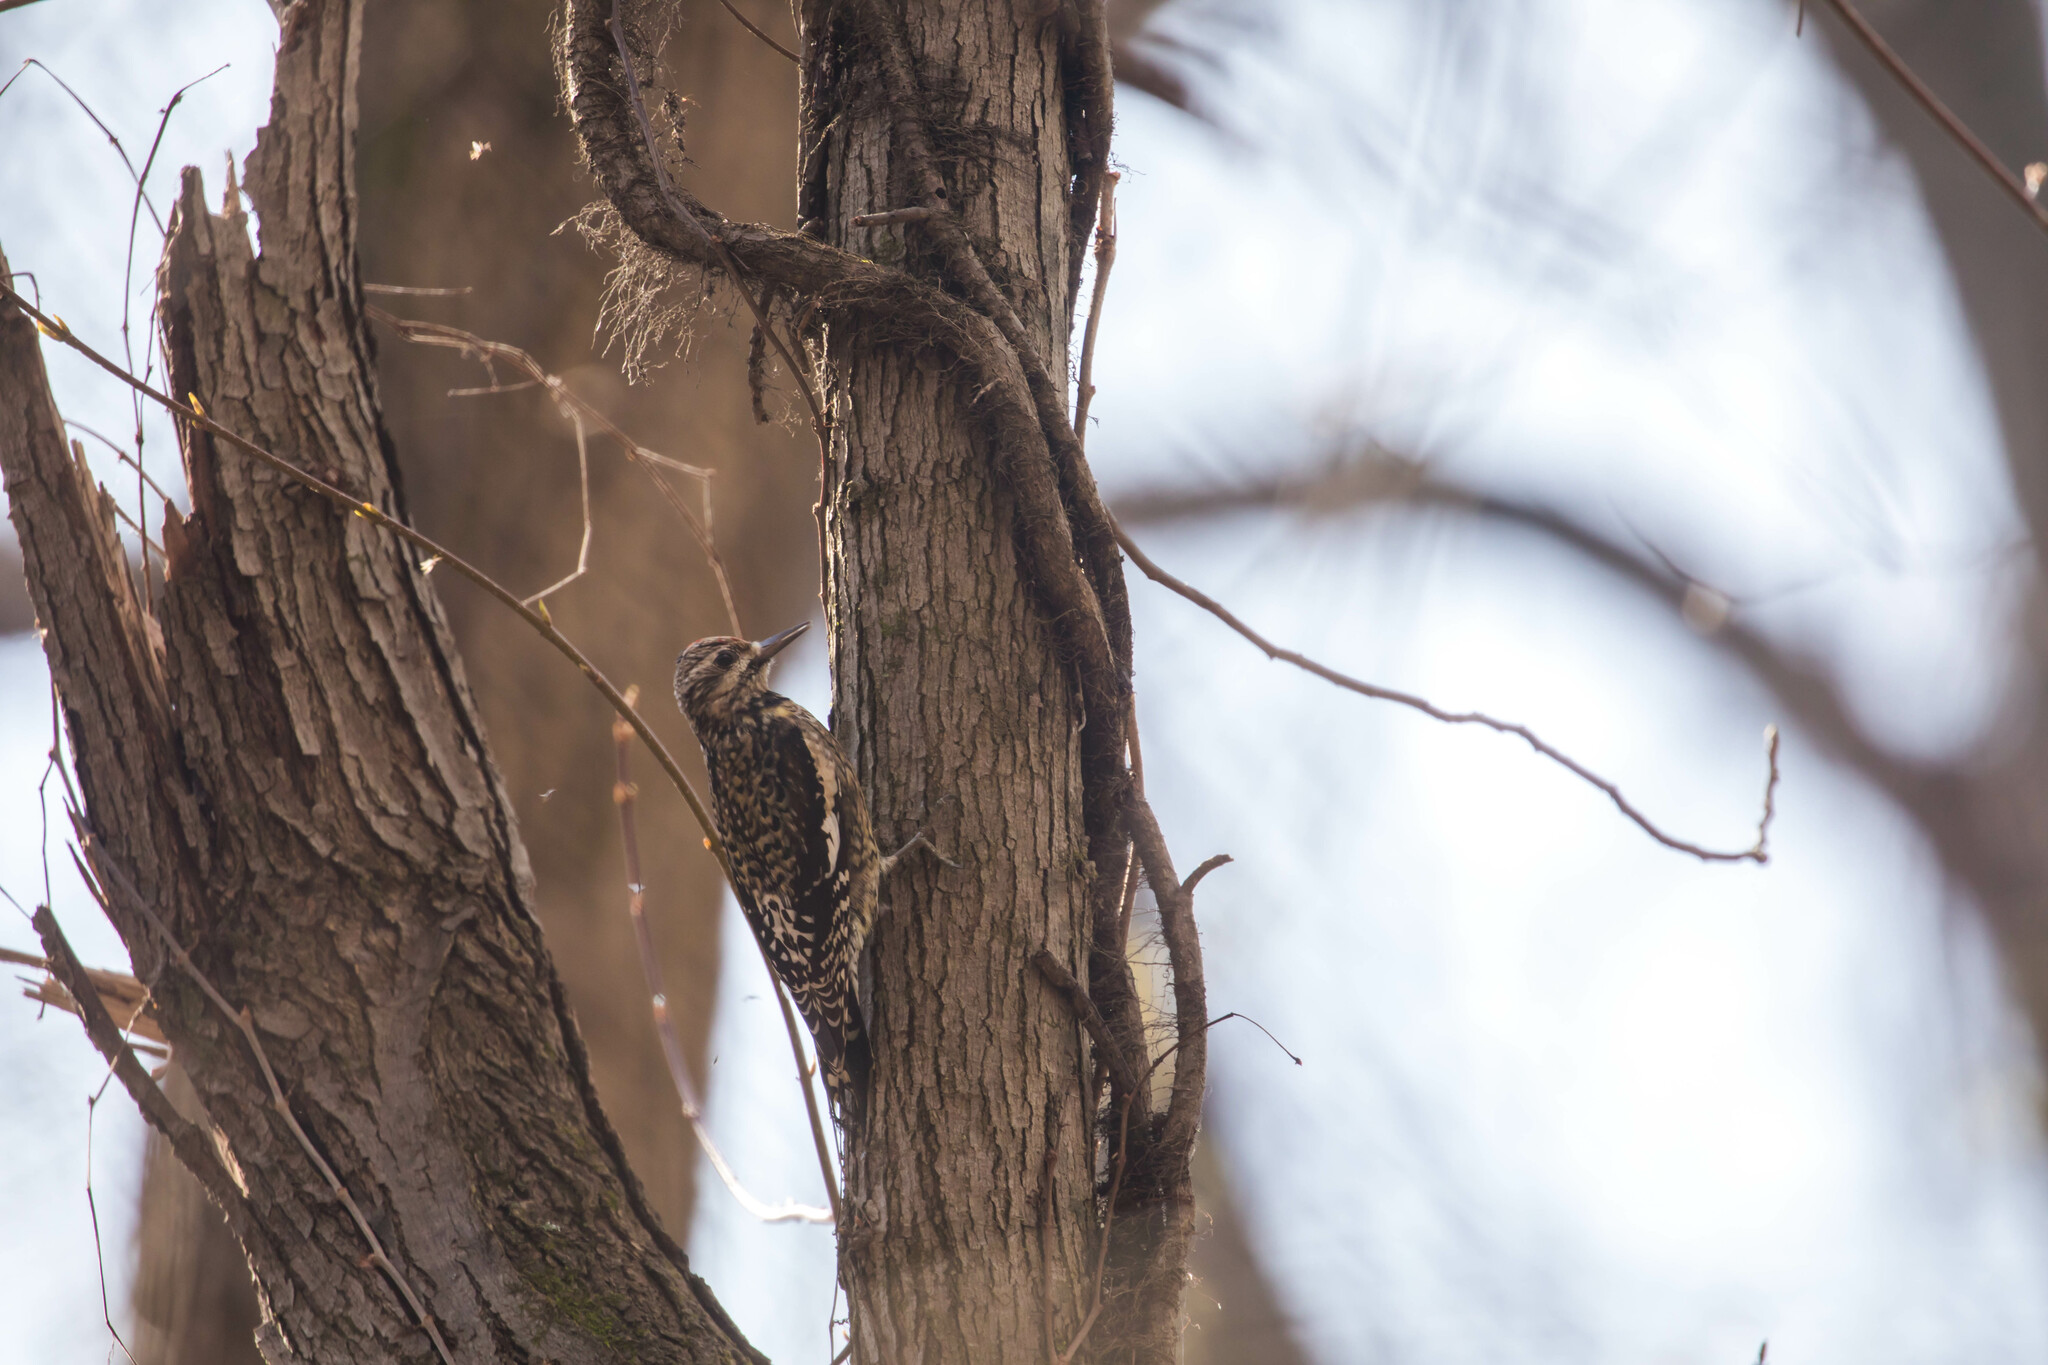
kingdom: Animalia
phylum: Chordata
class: Aves
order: Piciformes
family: Picidae
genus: Sphyrapicus
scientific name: Sphyrapicus varius
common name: Yellow-bellied sapsucker
